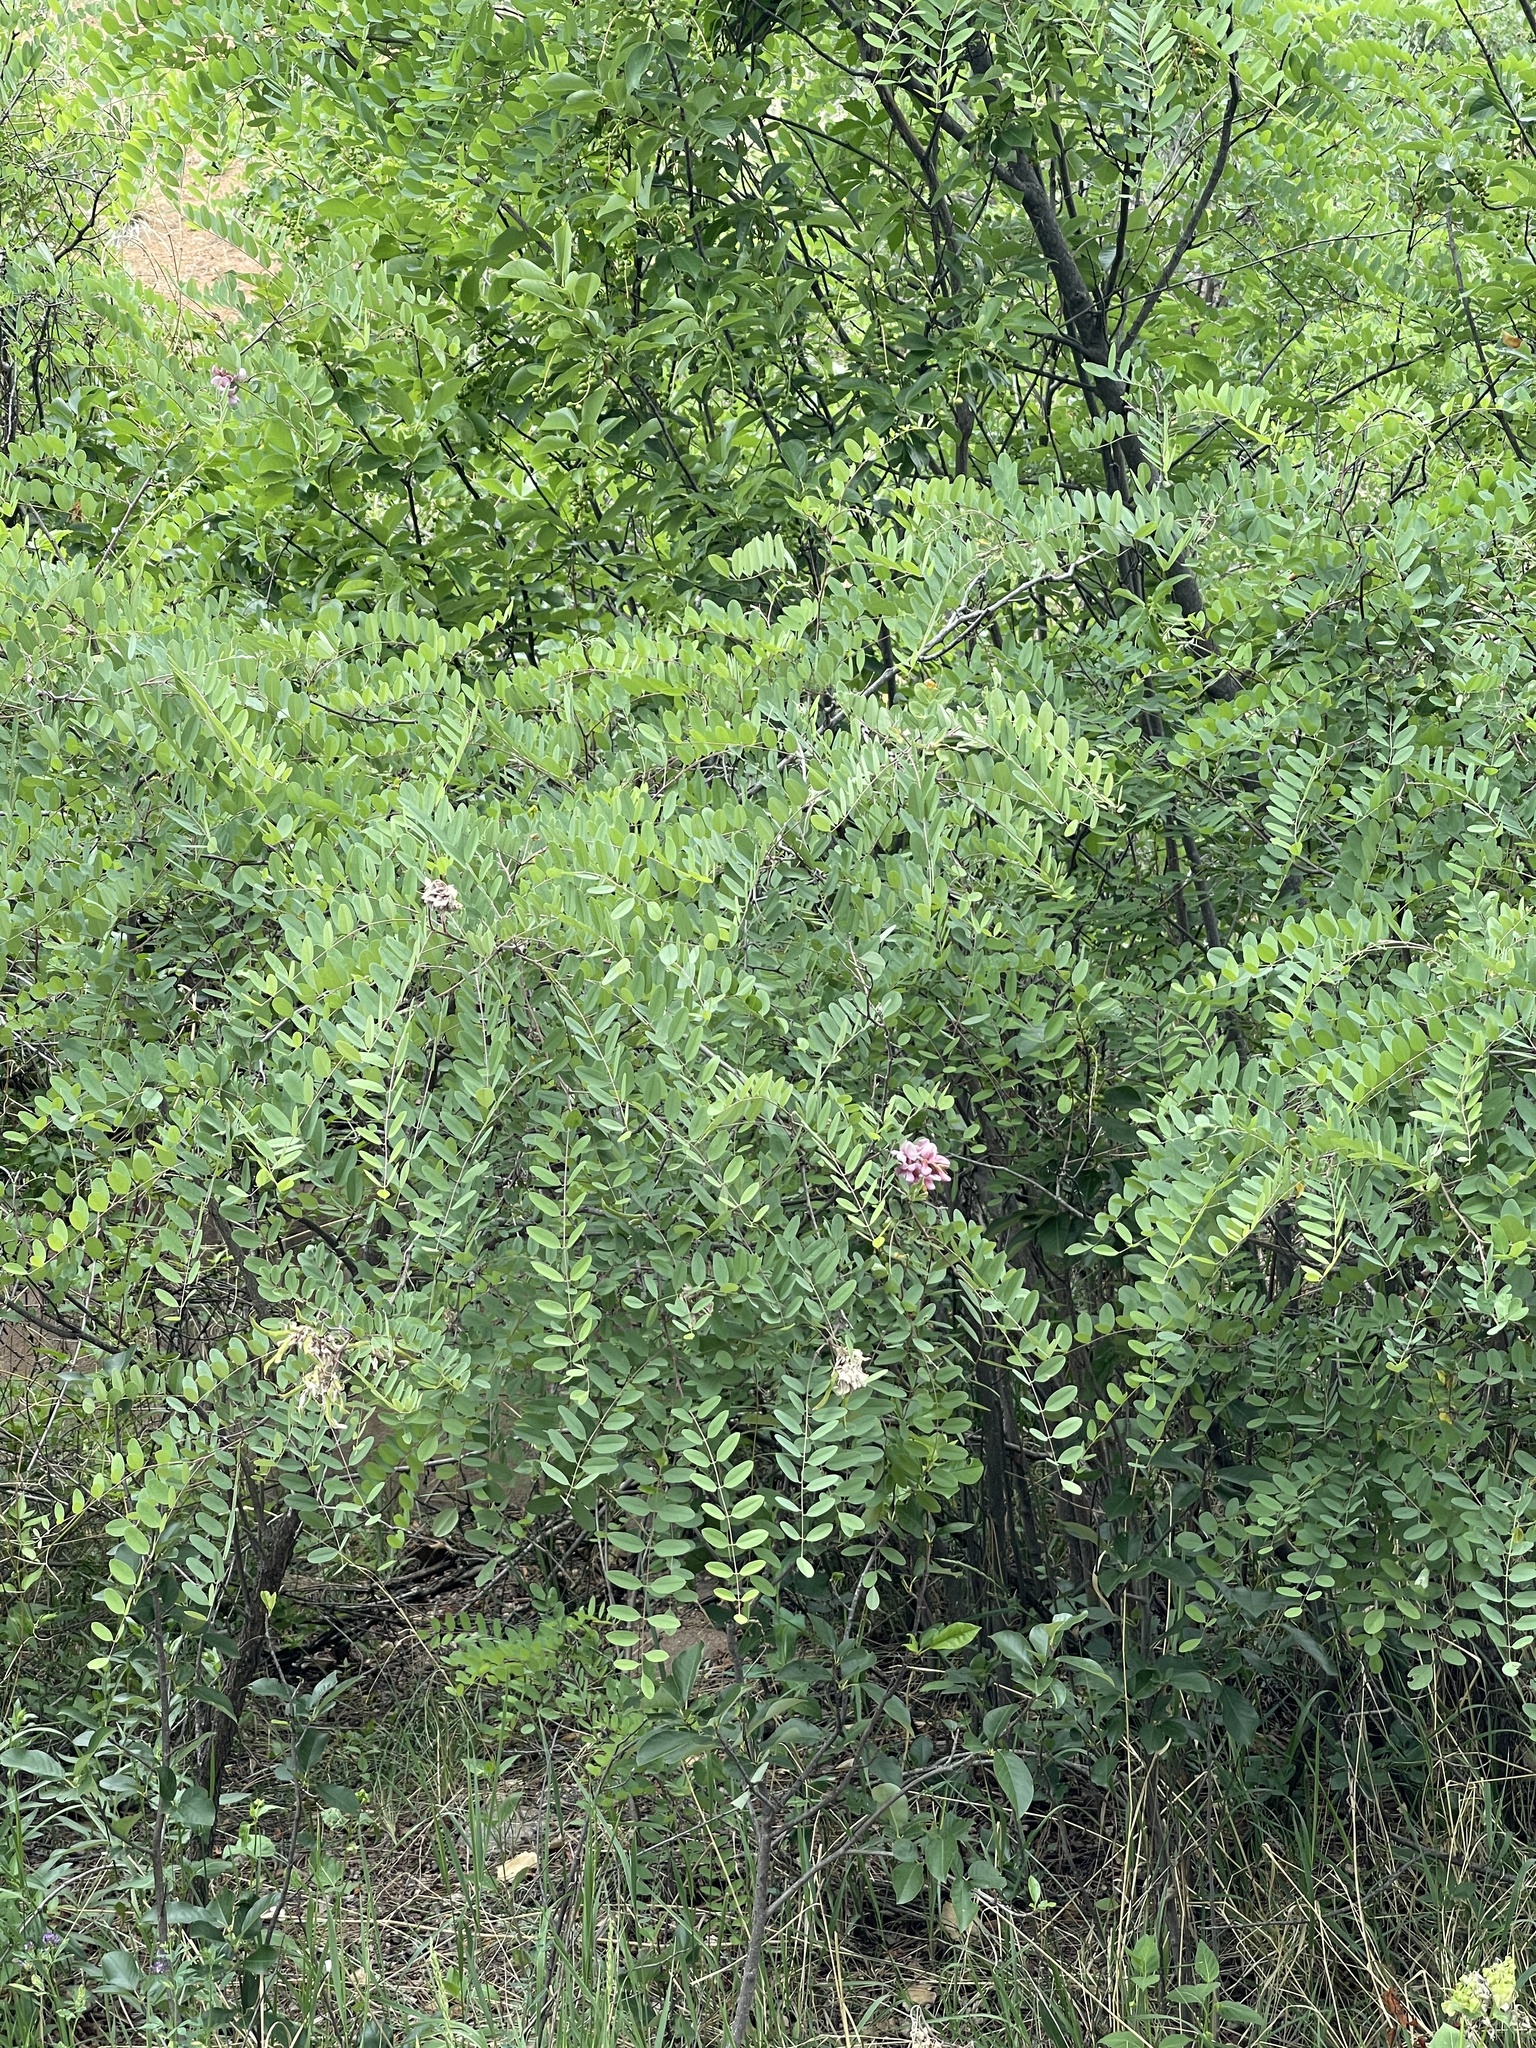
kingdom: Plantae
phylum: Tracheophyta
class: Magnoliopsida
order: Fabales
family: Fabaceae
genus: Robinia
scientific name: Robinia neomexicana
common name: New mexico locust
